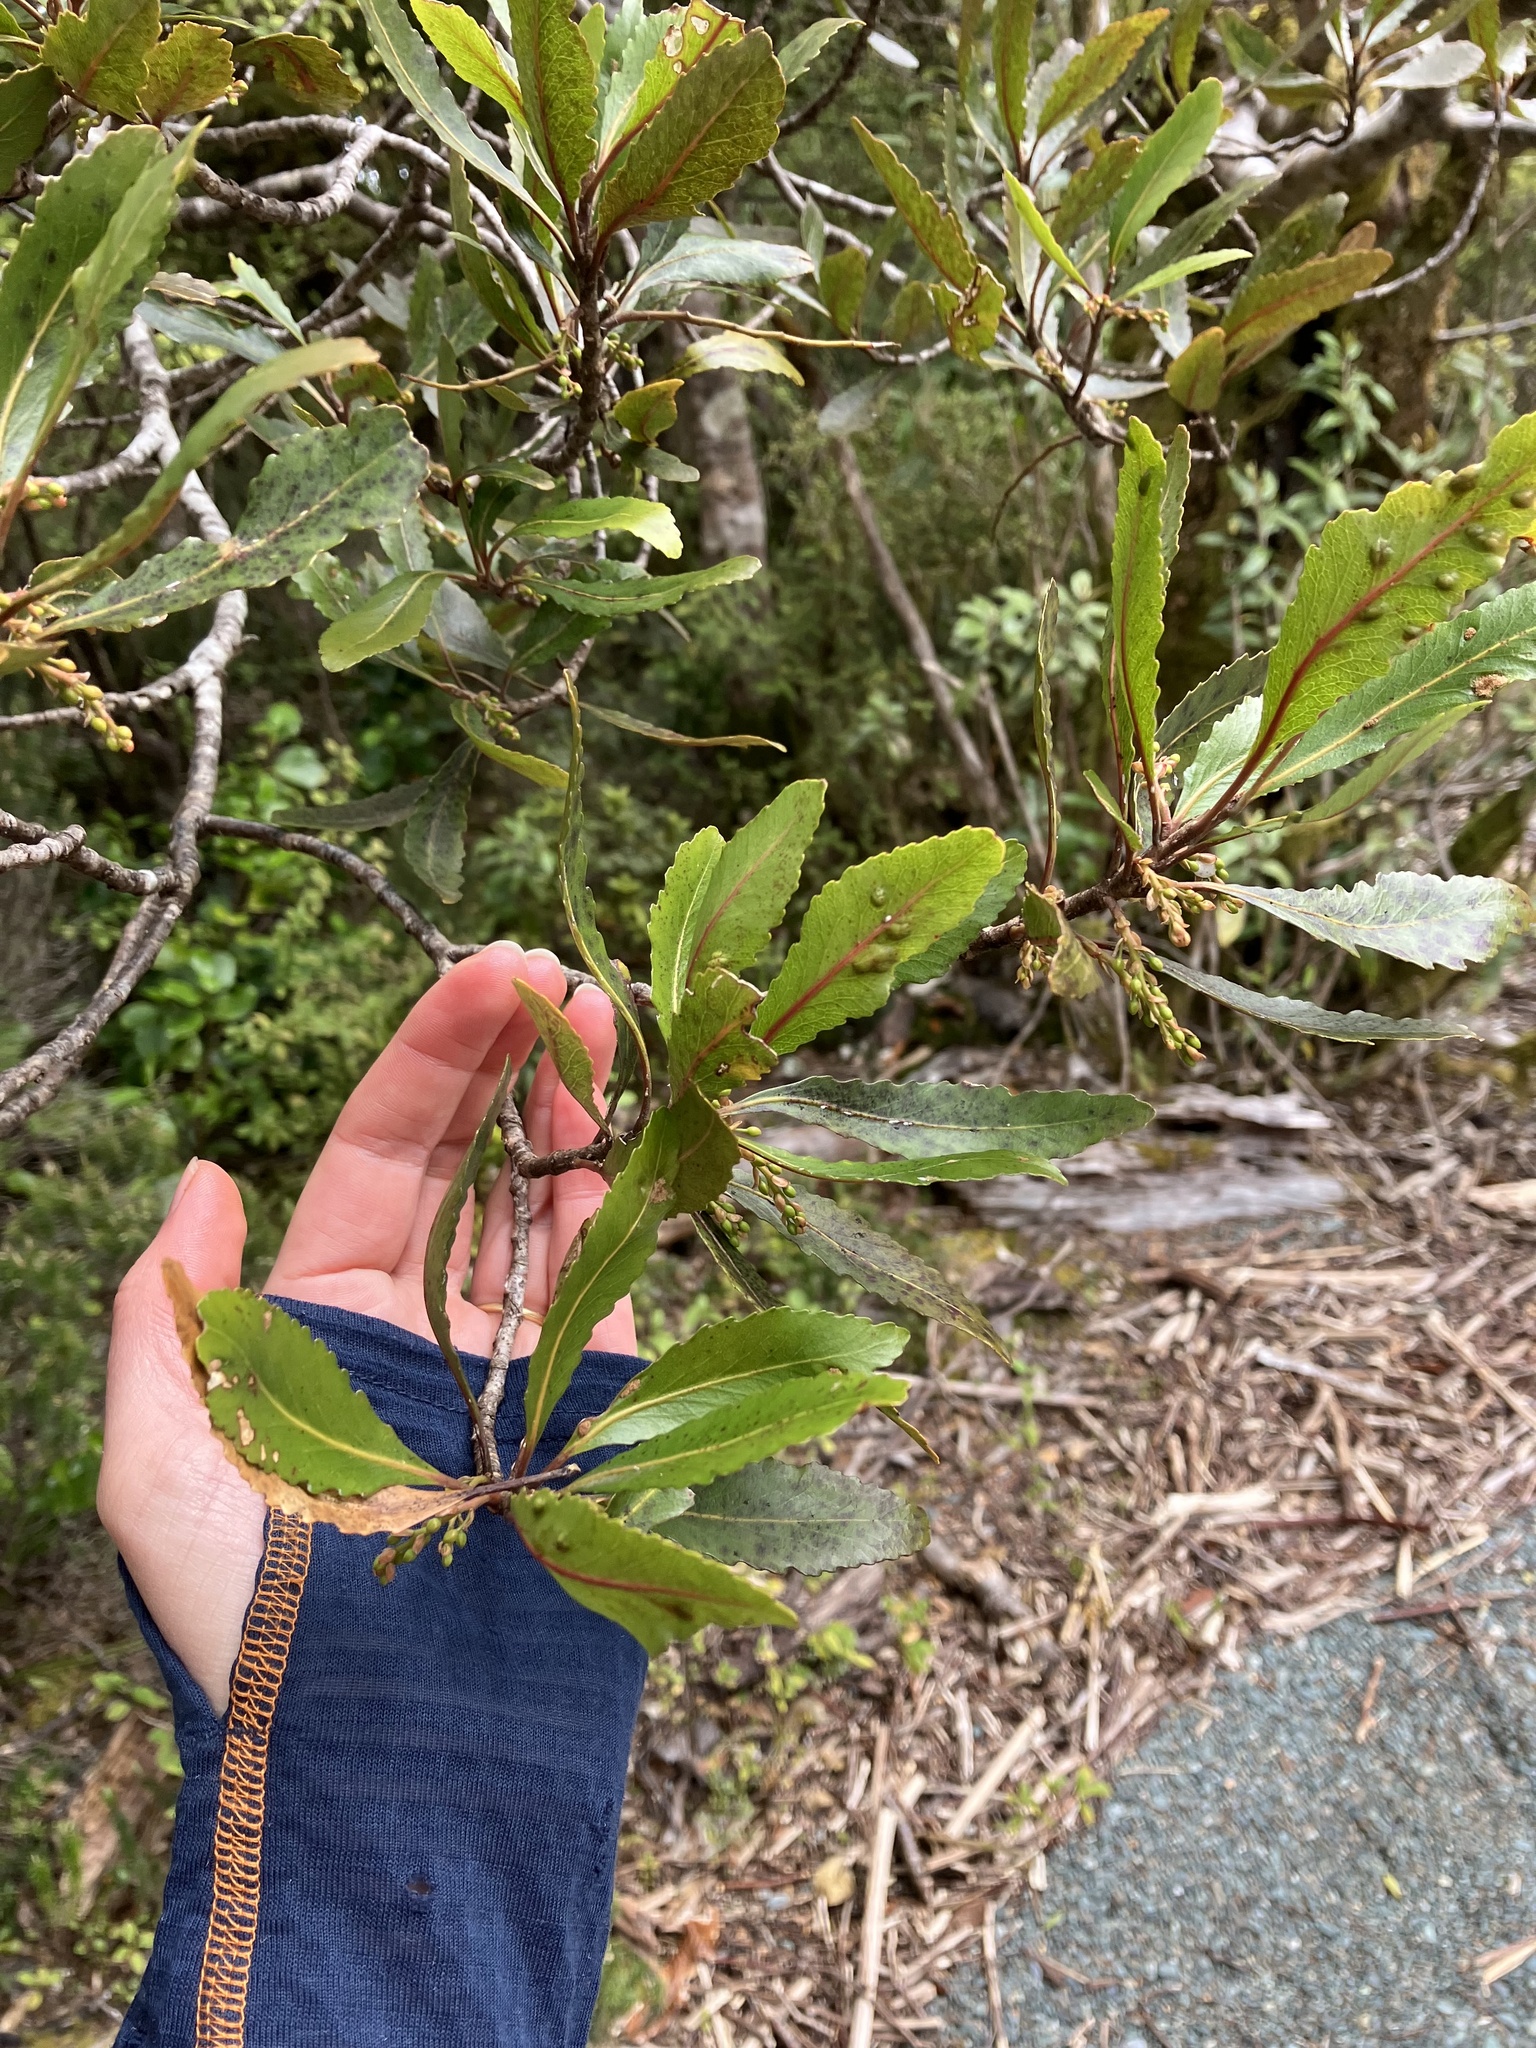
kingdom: Plantae
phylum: Tracheophyta
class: Magnoliopsida
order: Oxalidales
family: Elaeocarpaceae
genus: Elaeocarpus
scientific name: Elaeocarpus hookerianus
